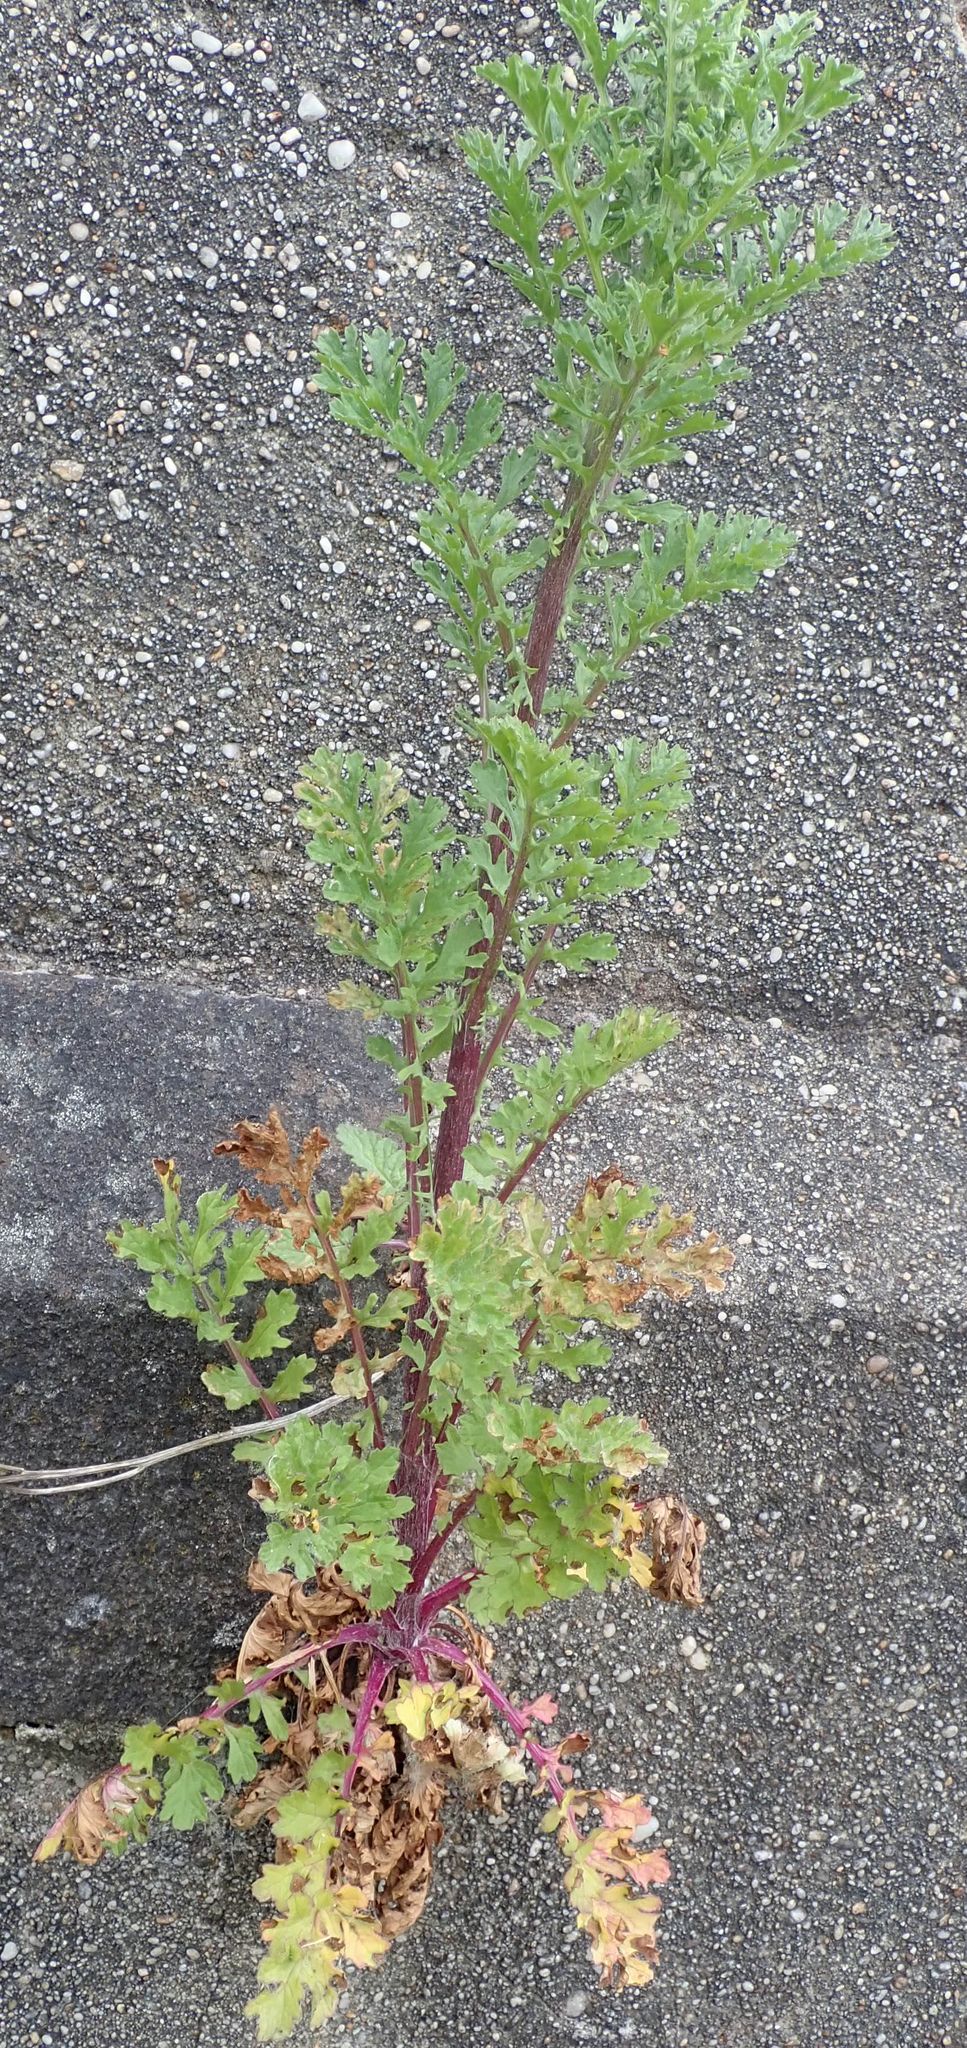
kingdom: Plantae
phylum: Tracheophyta
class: Magnoliopsida
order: Asterales
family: Asteraceae
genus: Jacobaea
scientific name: Jacobaea vulgaris
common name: Stinking willie
